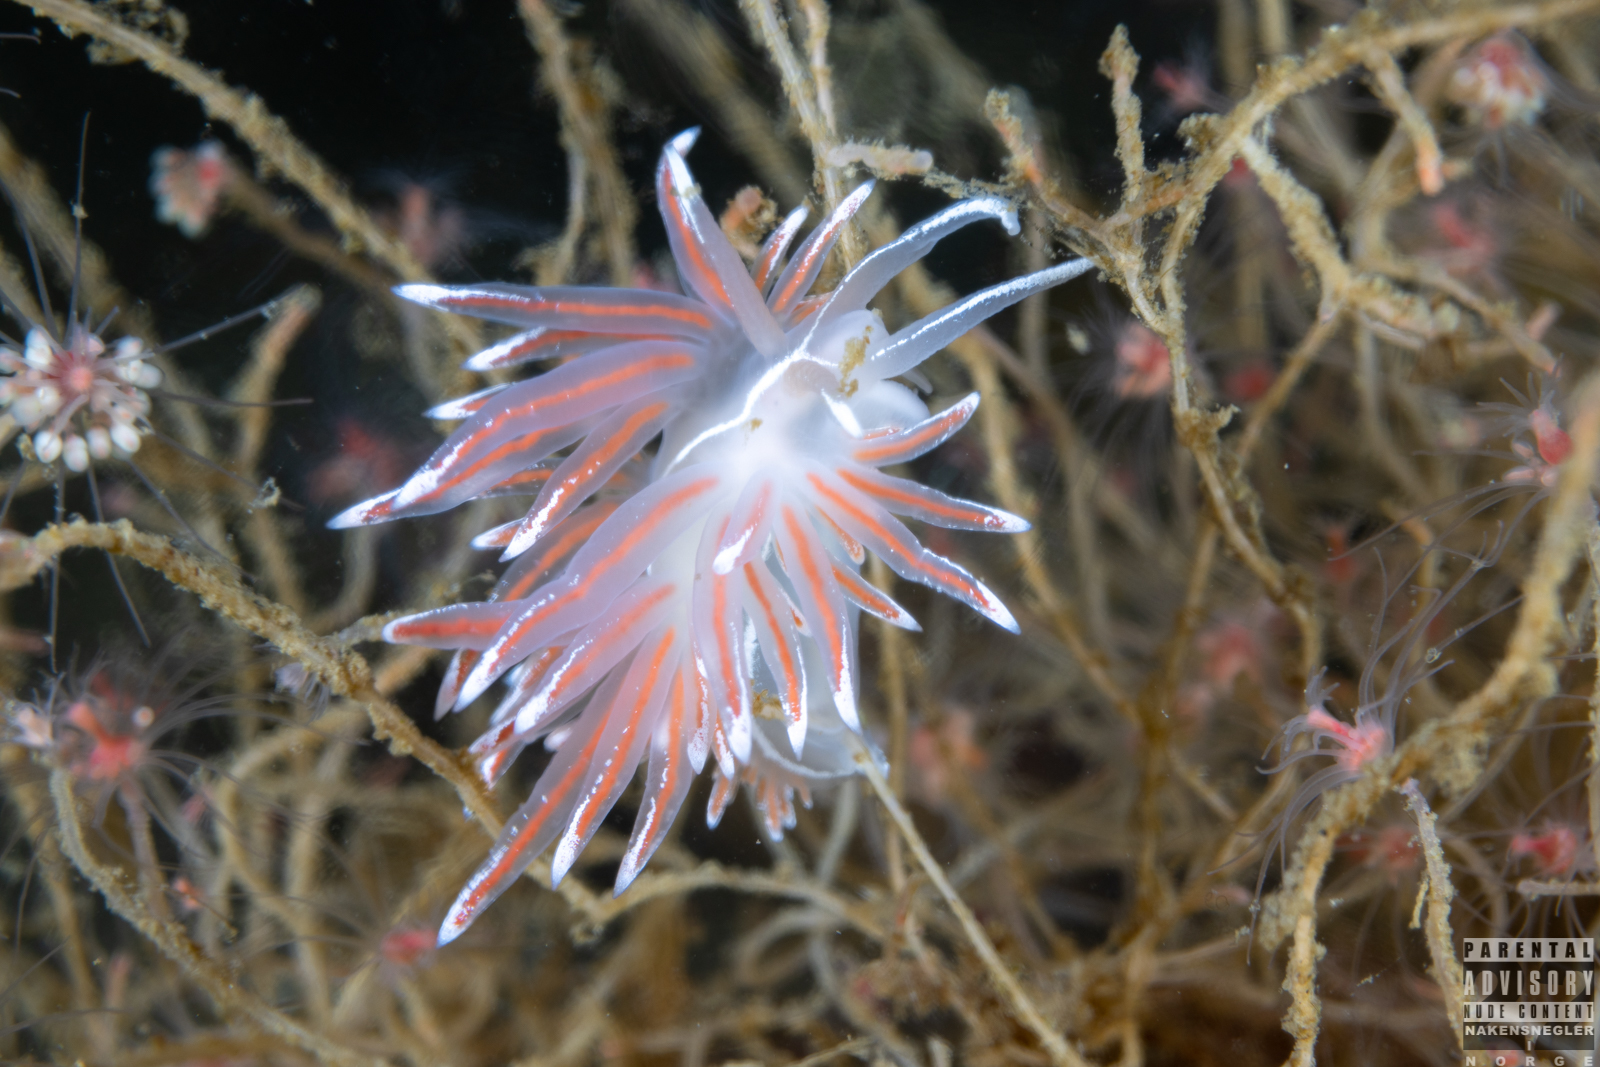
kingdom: Animalia
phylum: Mollusca
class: Gastropoda
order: Nudibranchia
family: Coryphellidae
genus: Coryphella
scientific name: Coryphella lineata
